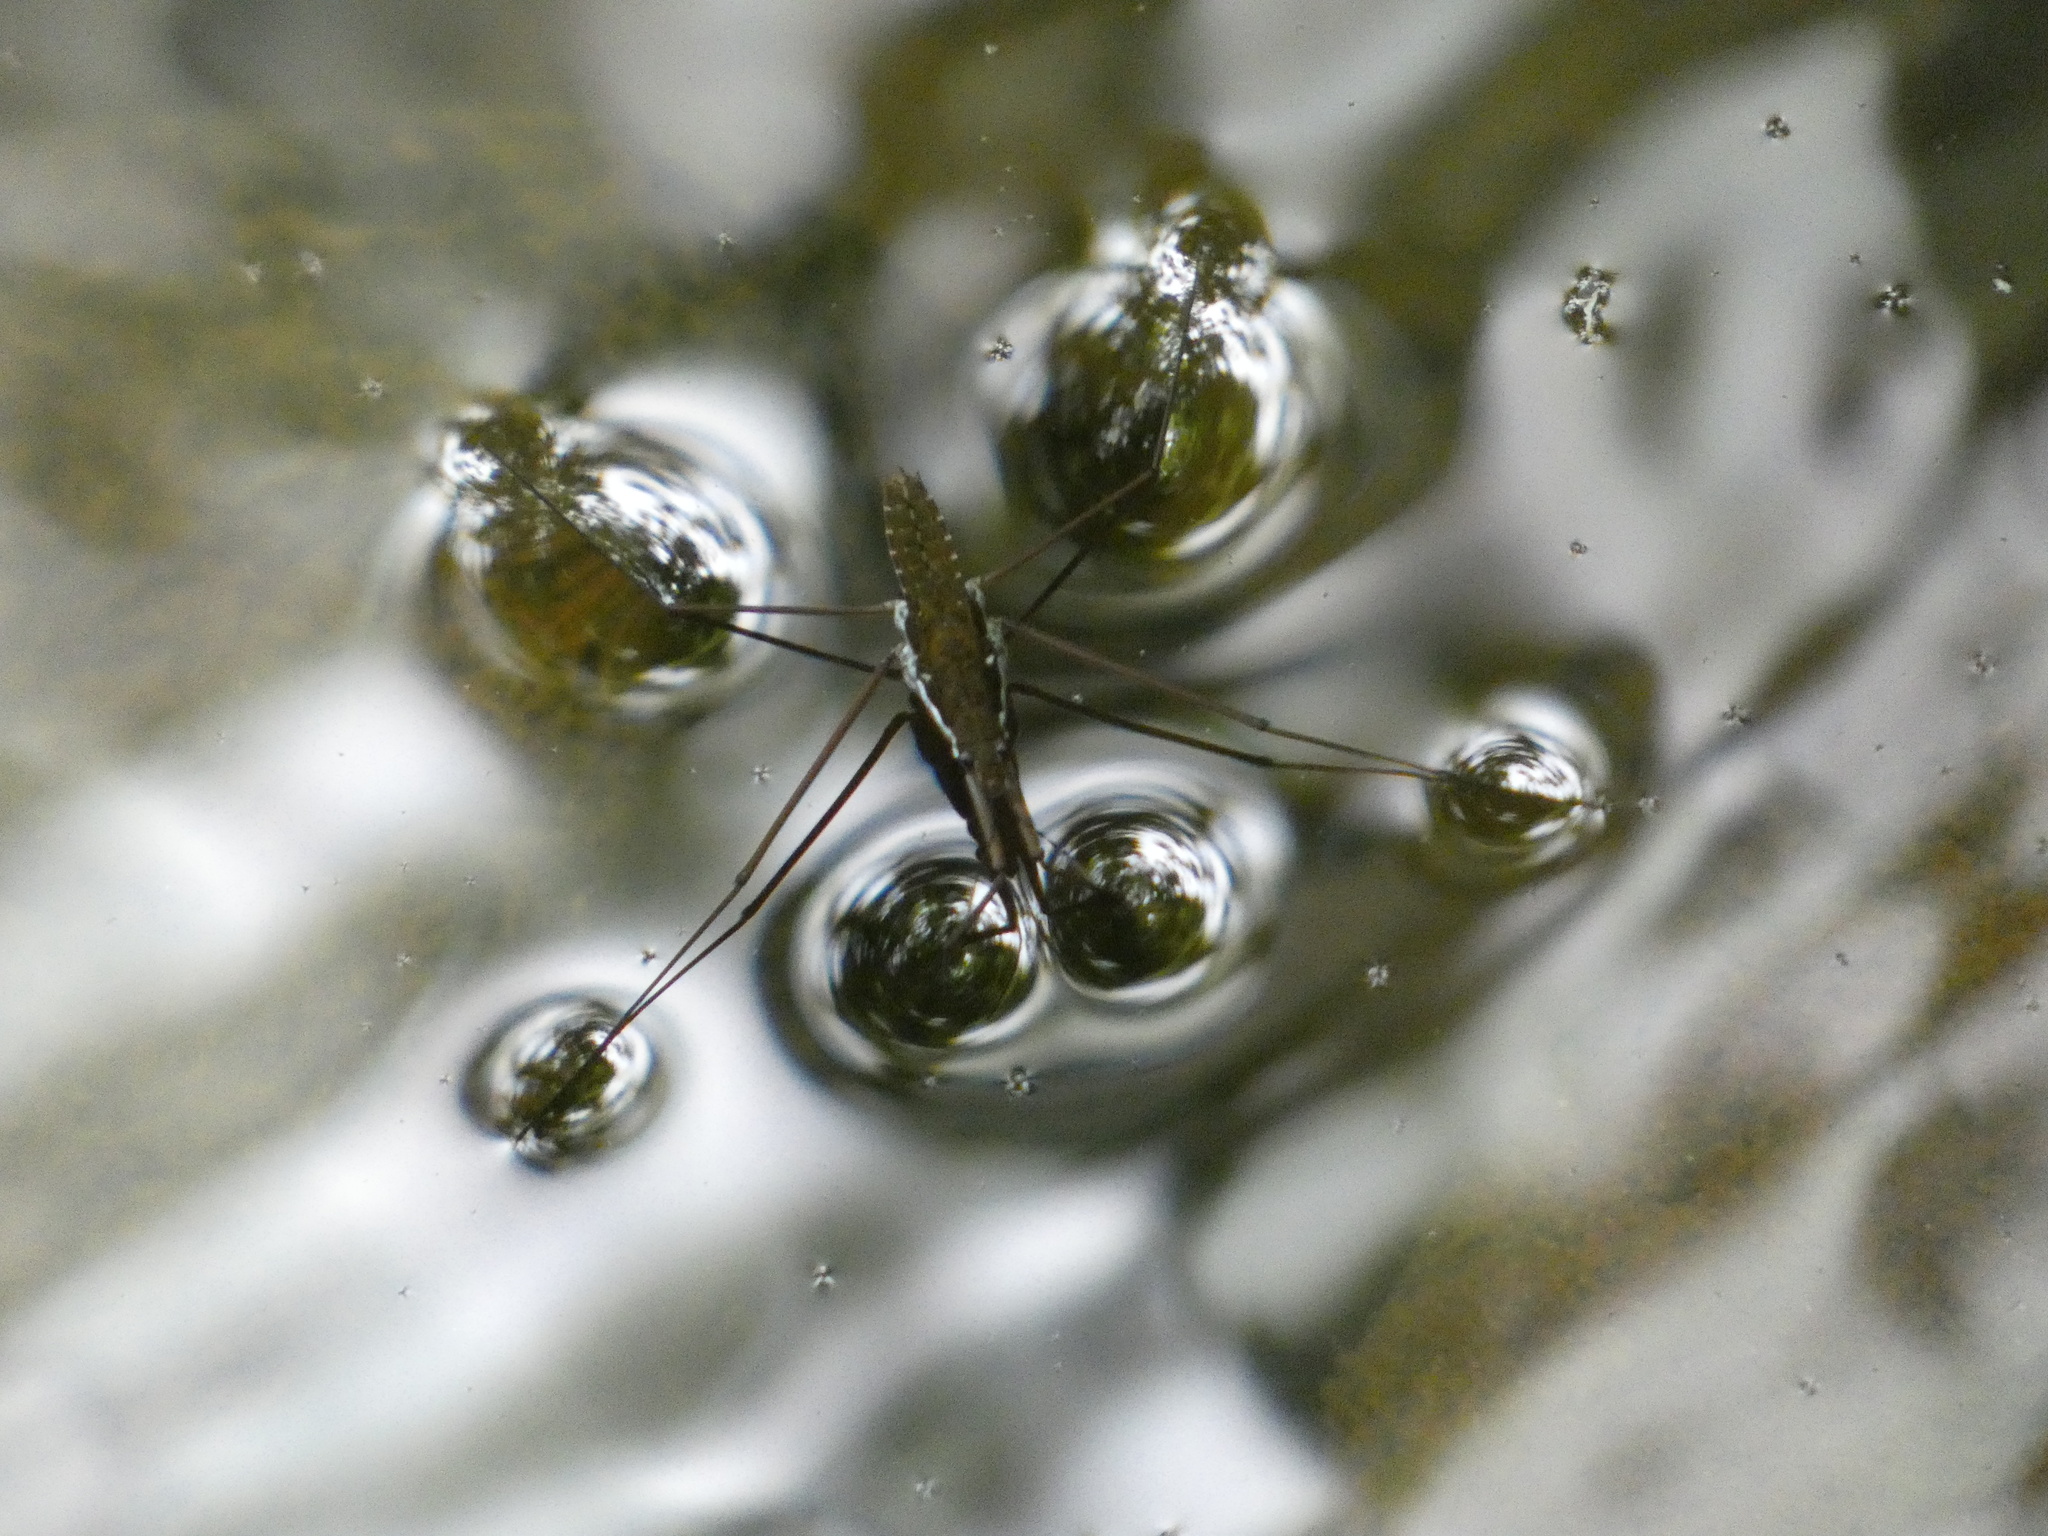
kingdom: Animalia
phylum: Arthropoda
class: Insecta
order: Hemiptera
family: Gerridae
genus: Aquarius
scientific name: Aquarius
